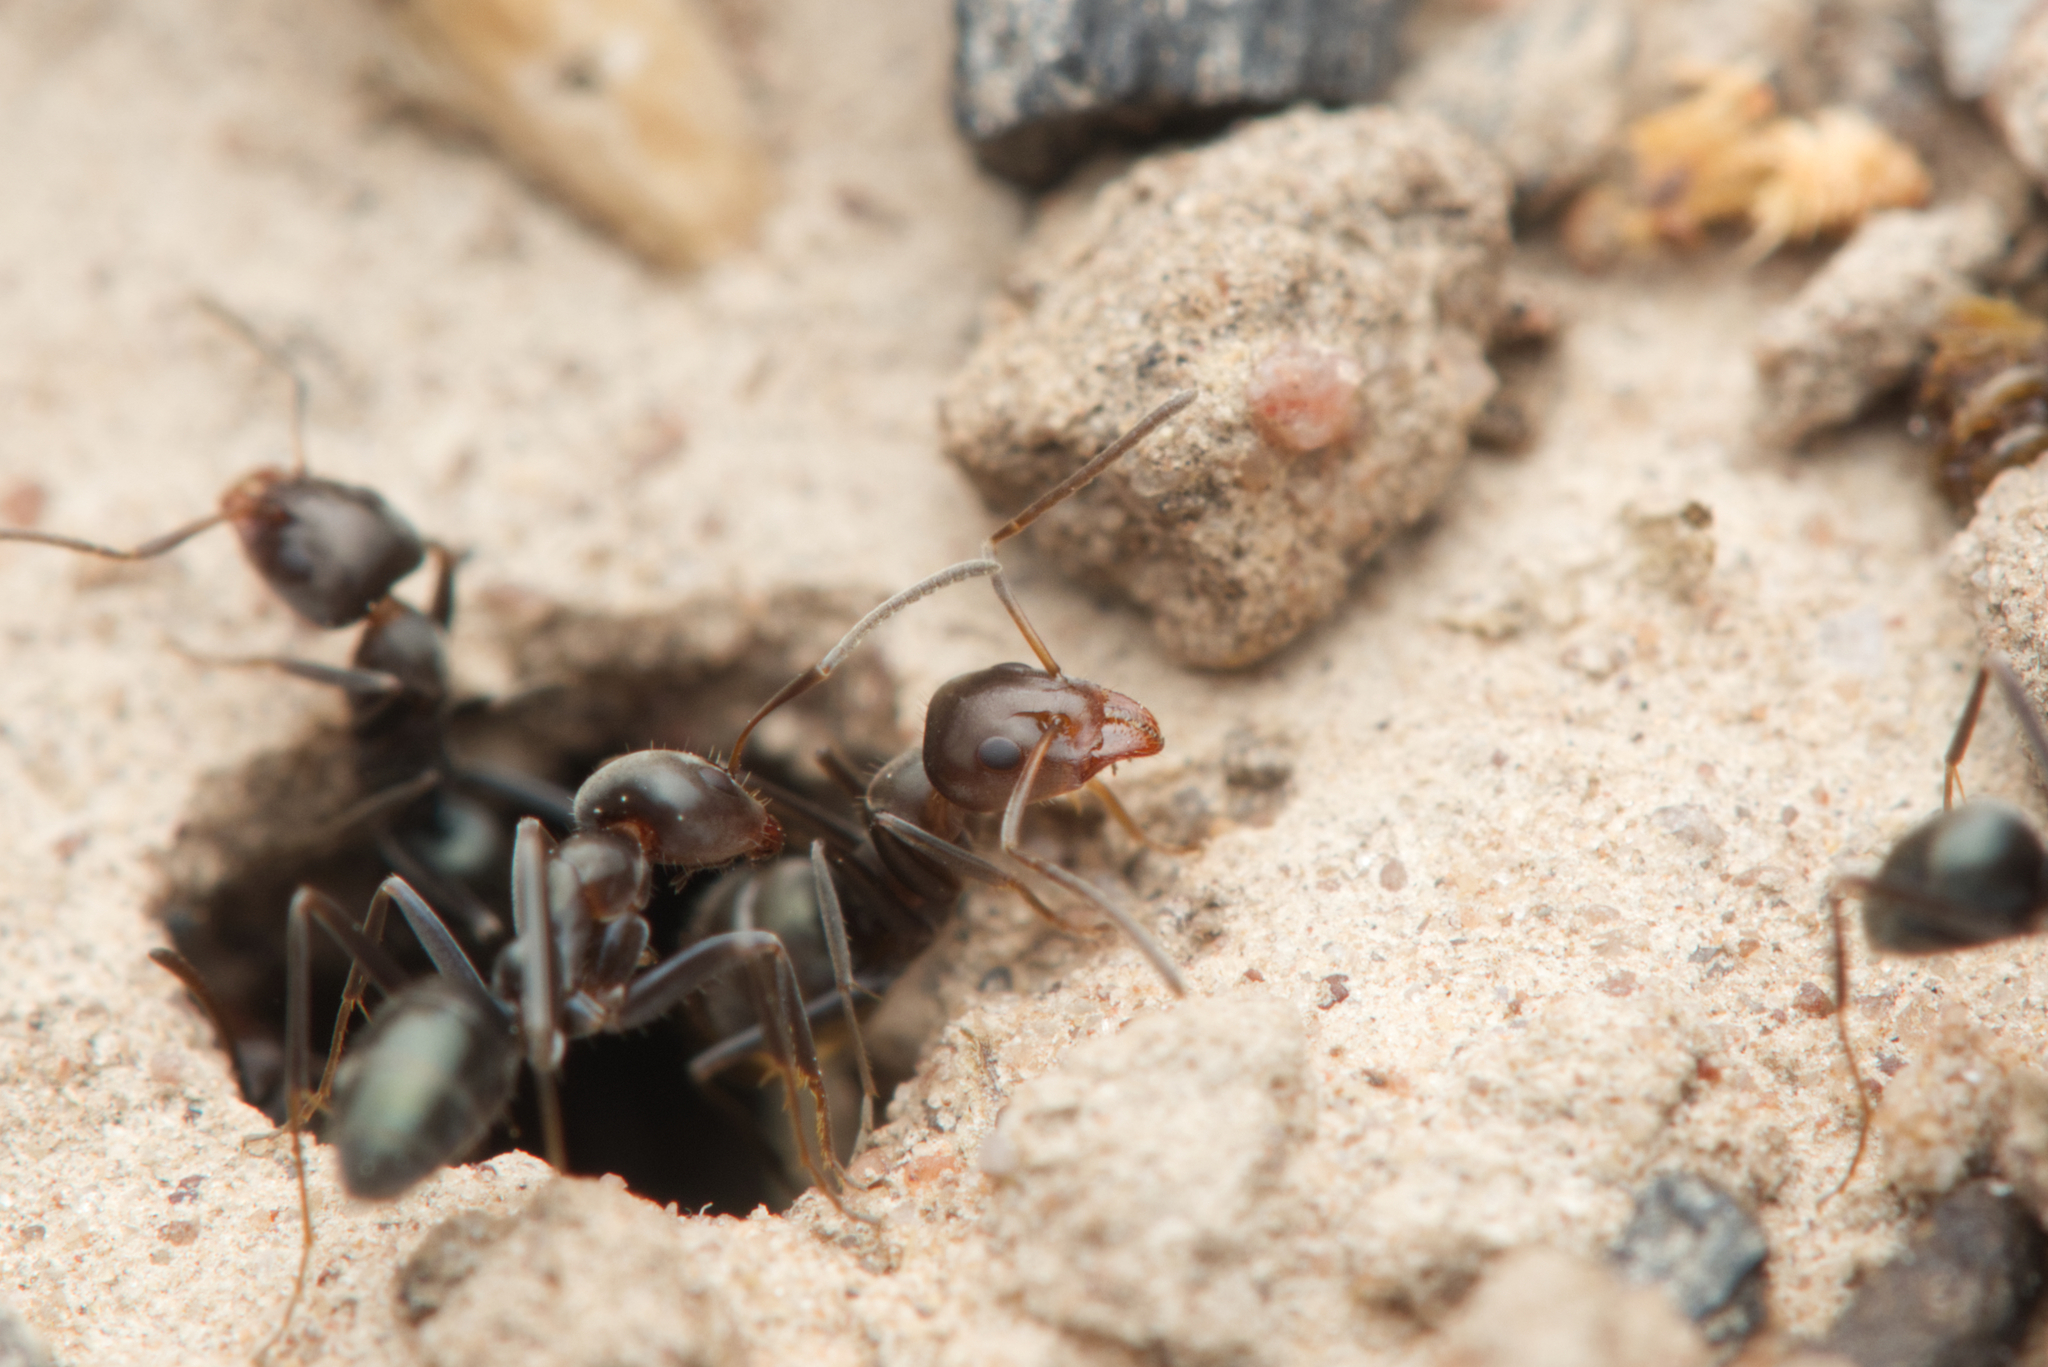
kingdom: Animalia
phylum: Arthropoda
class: Insecta
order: Hymenoptera
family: Formicidae
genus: Iridomyrmex
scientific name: Iridomyrmex rufoniger
